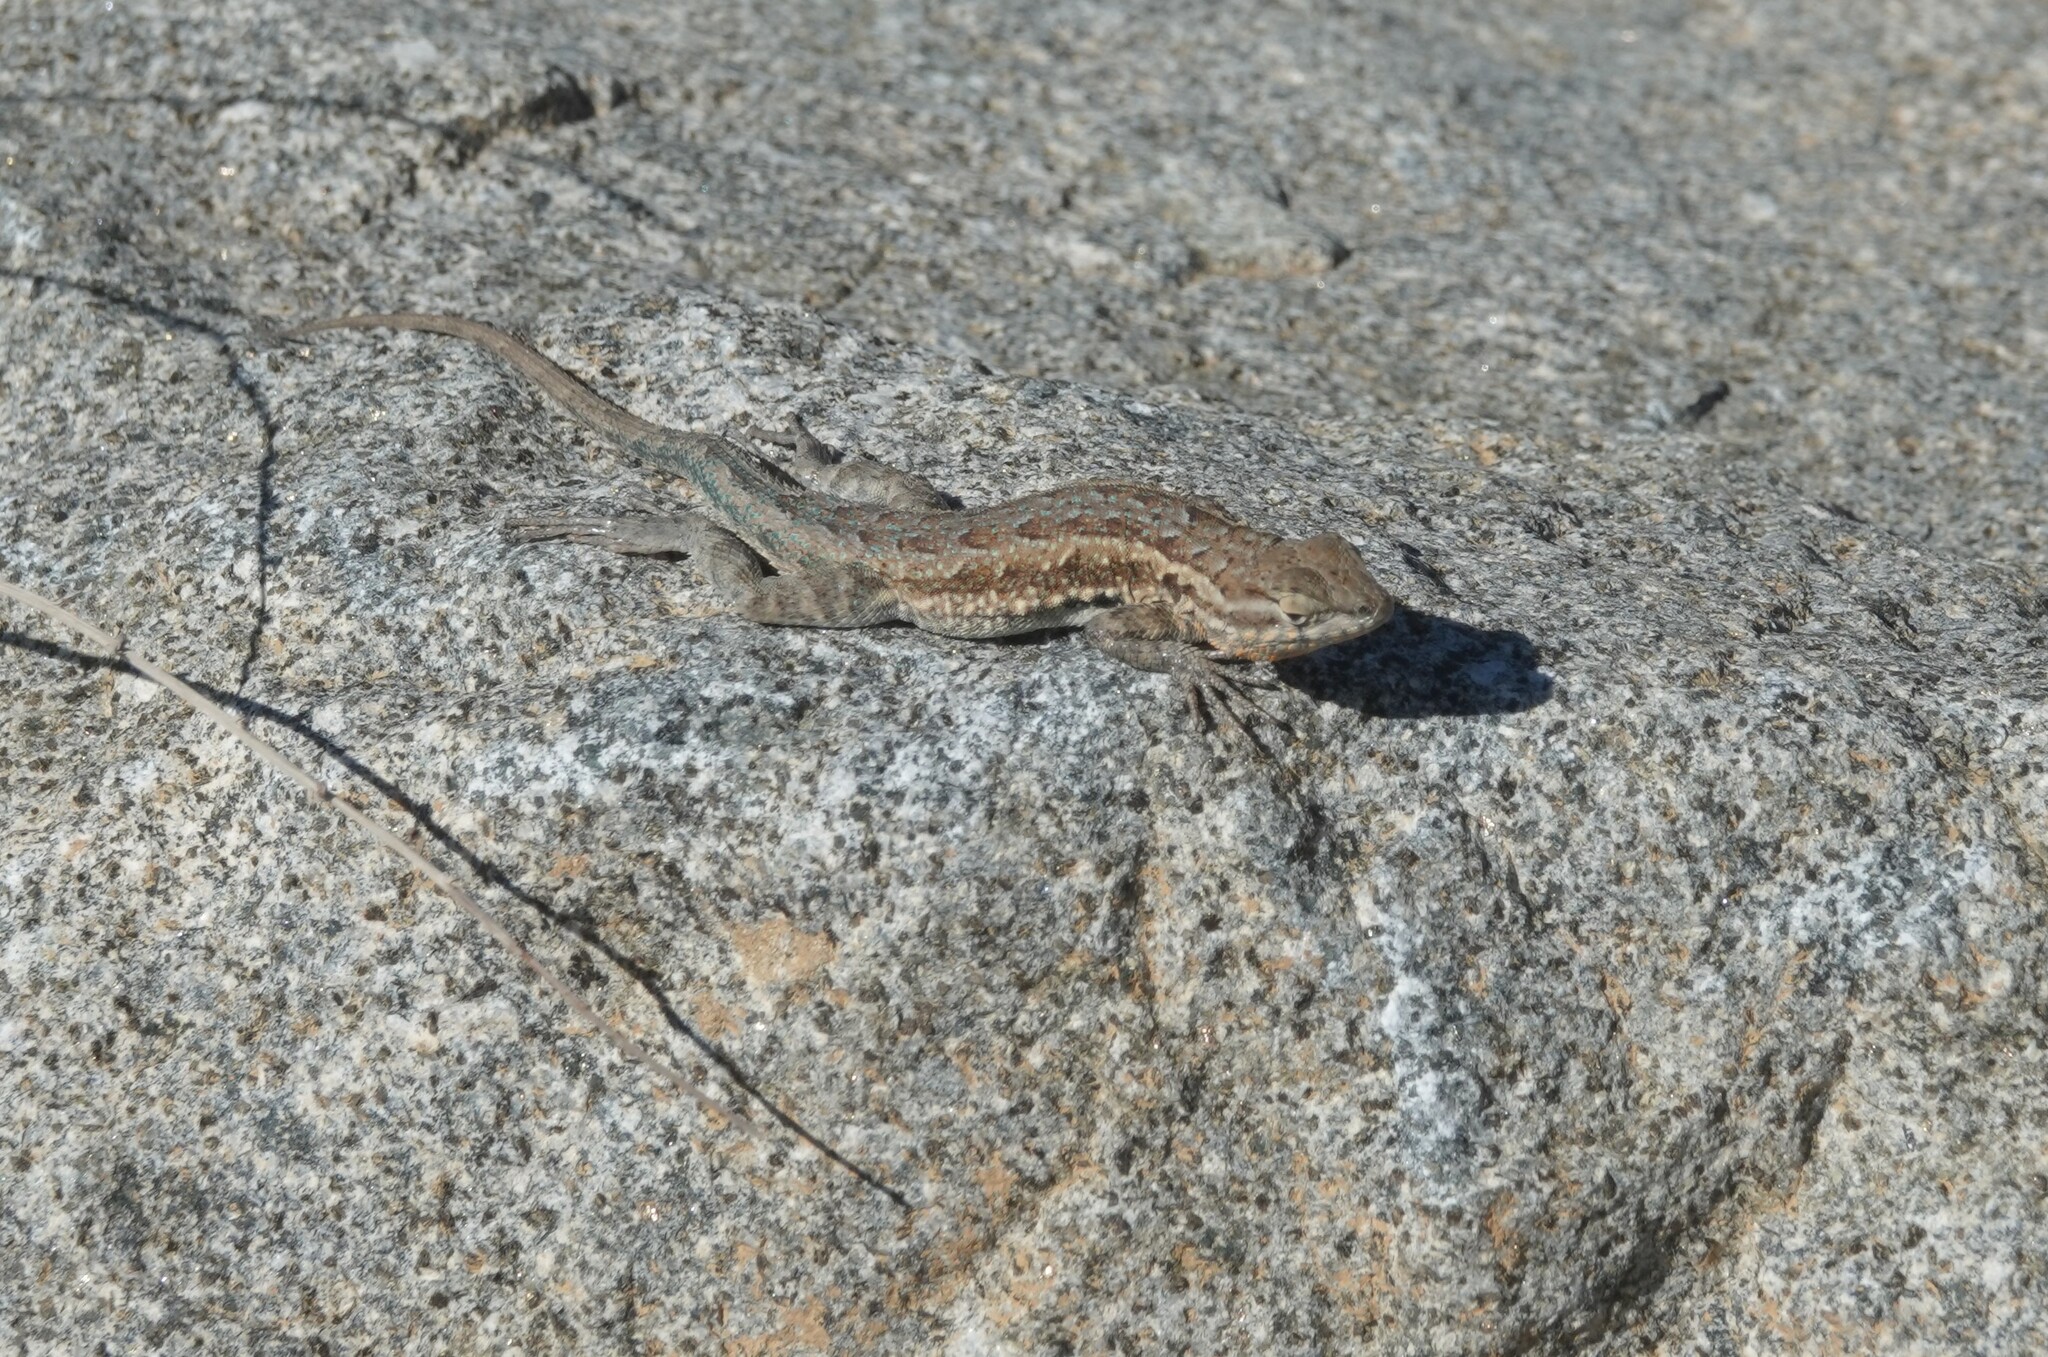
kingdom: Animalia
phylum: Chordata
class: Squamata
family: Phrynosomatidae
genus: Uta
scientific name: Uta stansburiana
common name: Side-blotched lizard
